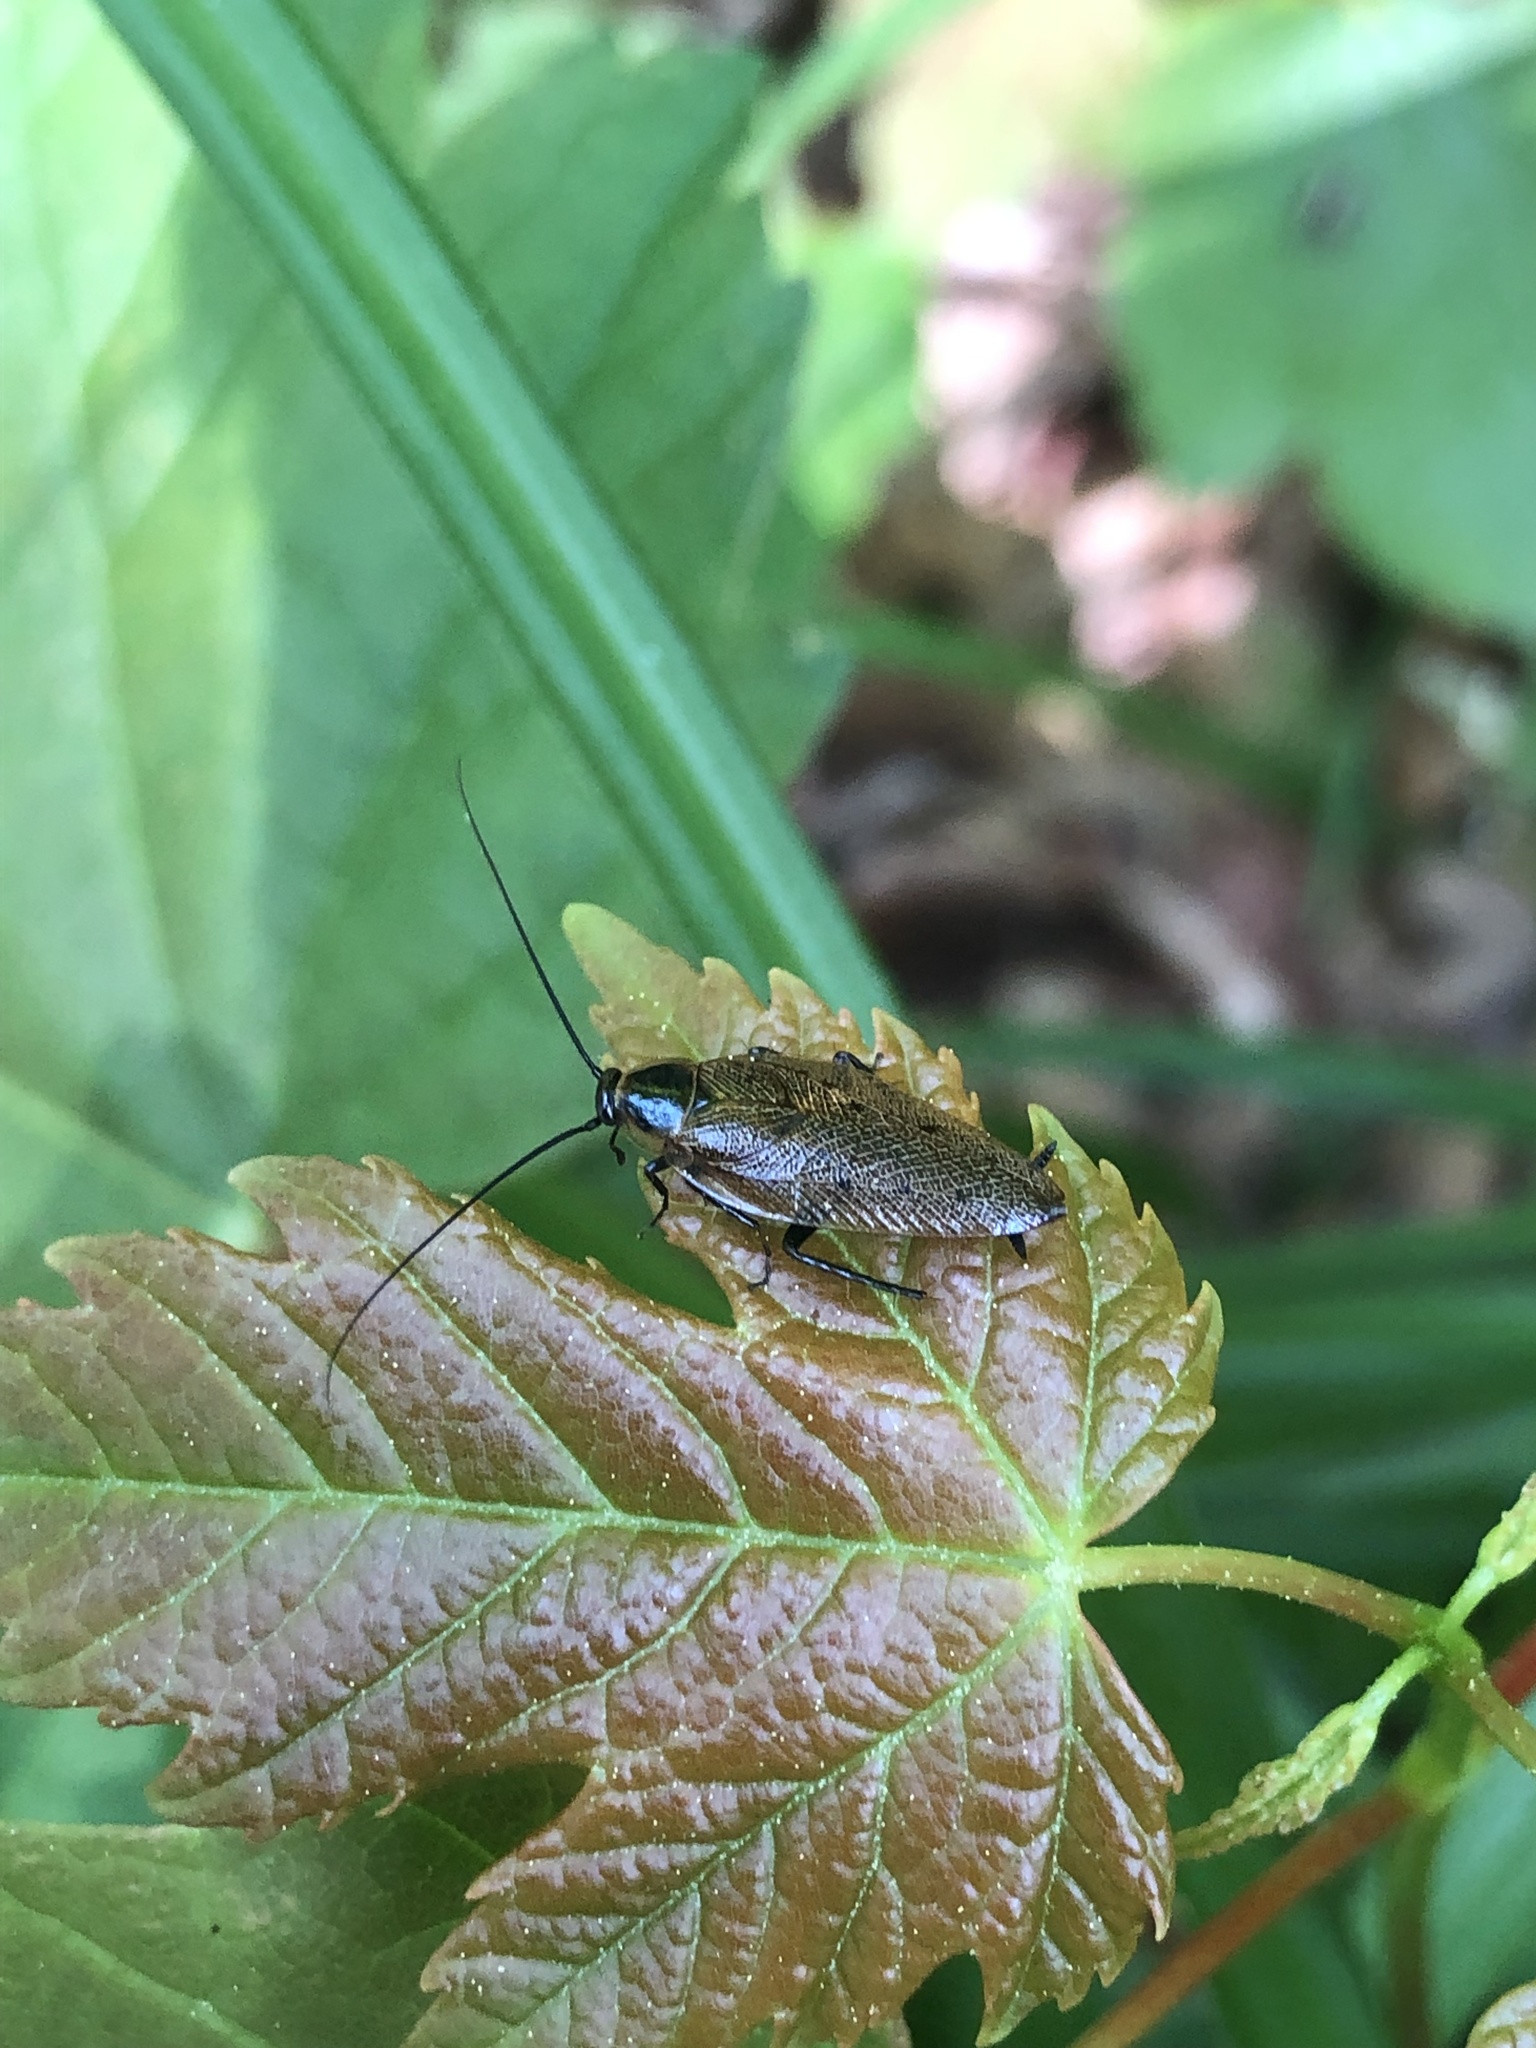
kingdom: Animalia
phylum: Arthropoda
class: Insecta
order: Blattodea
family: Ectobiidae
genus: Ectobius
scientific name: Ectobius lapponicus
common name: Dusky cockroach
